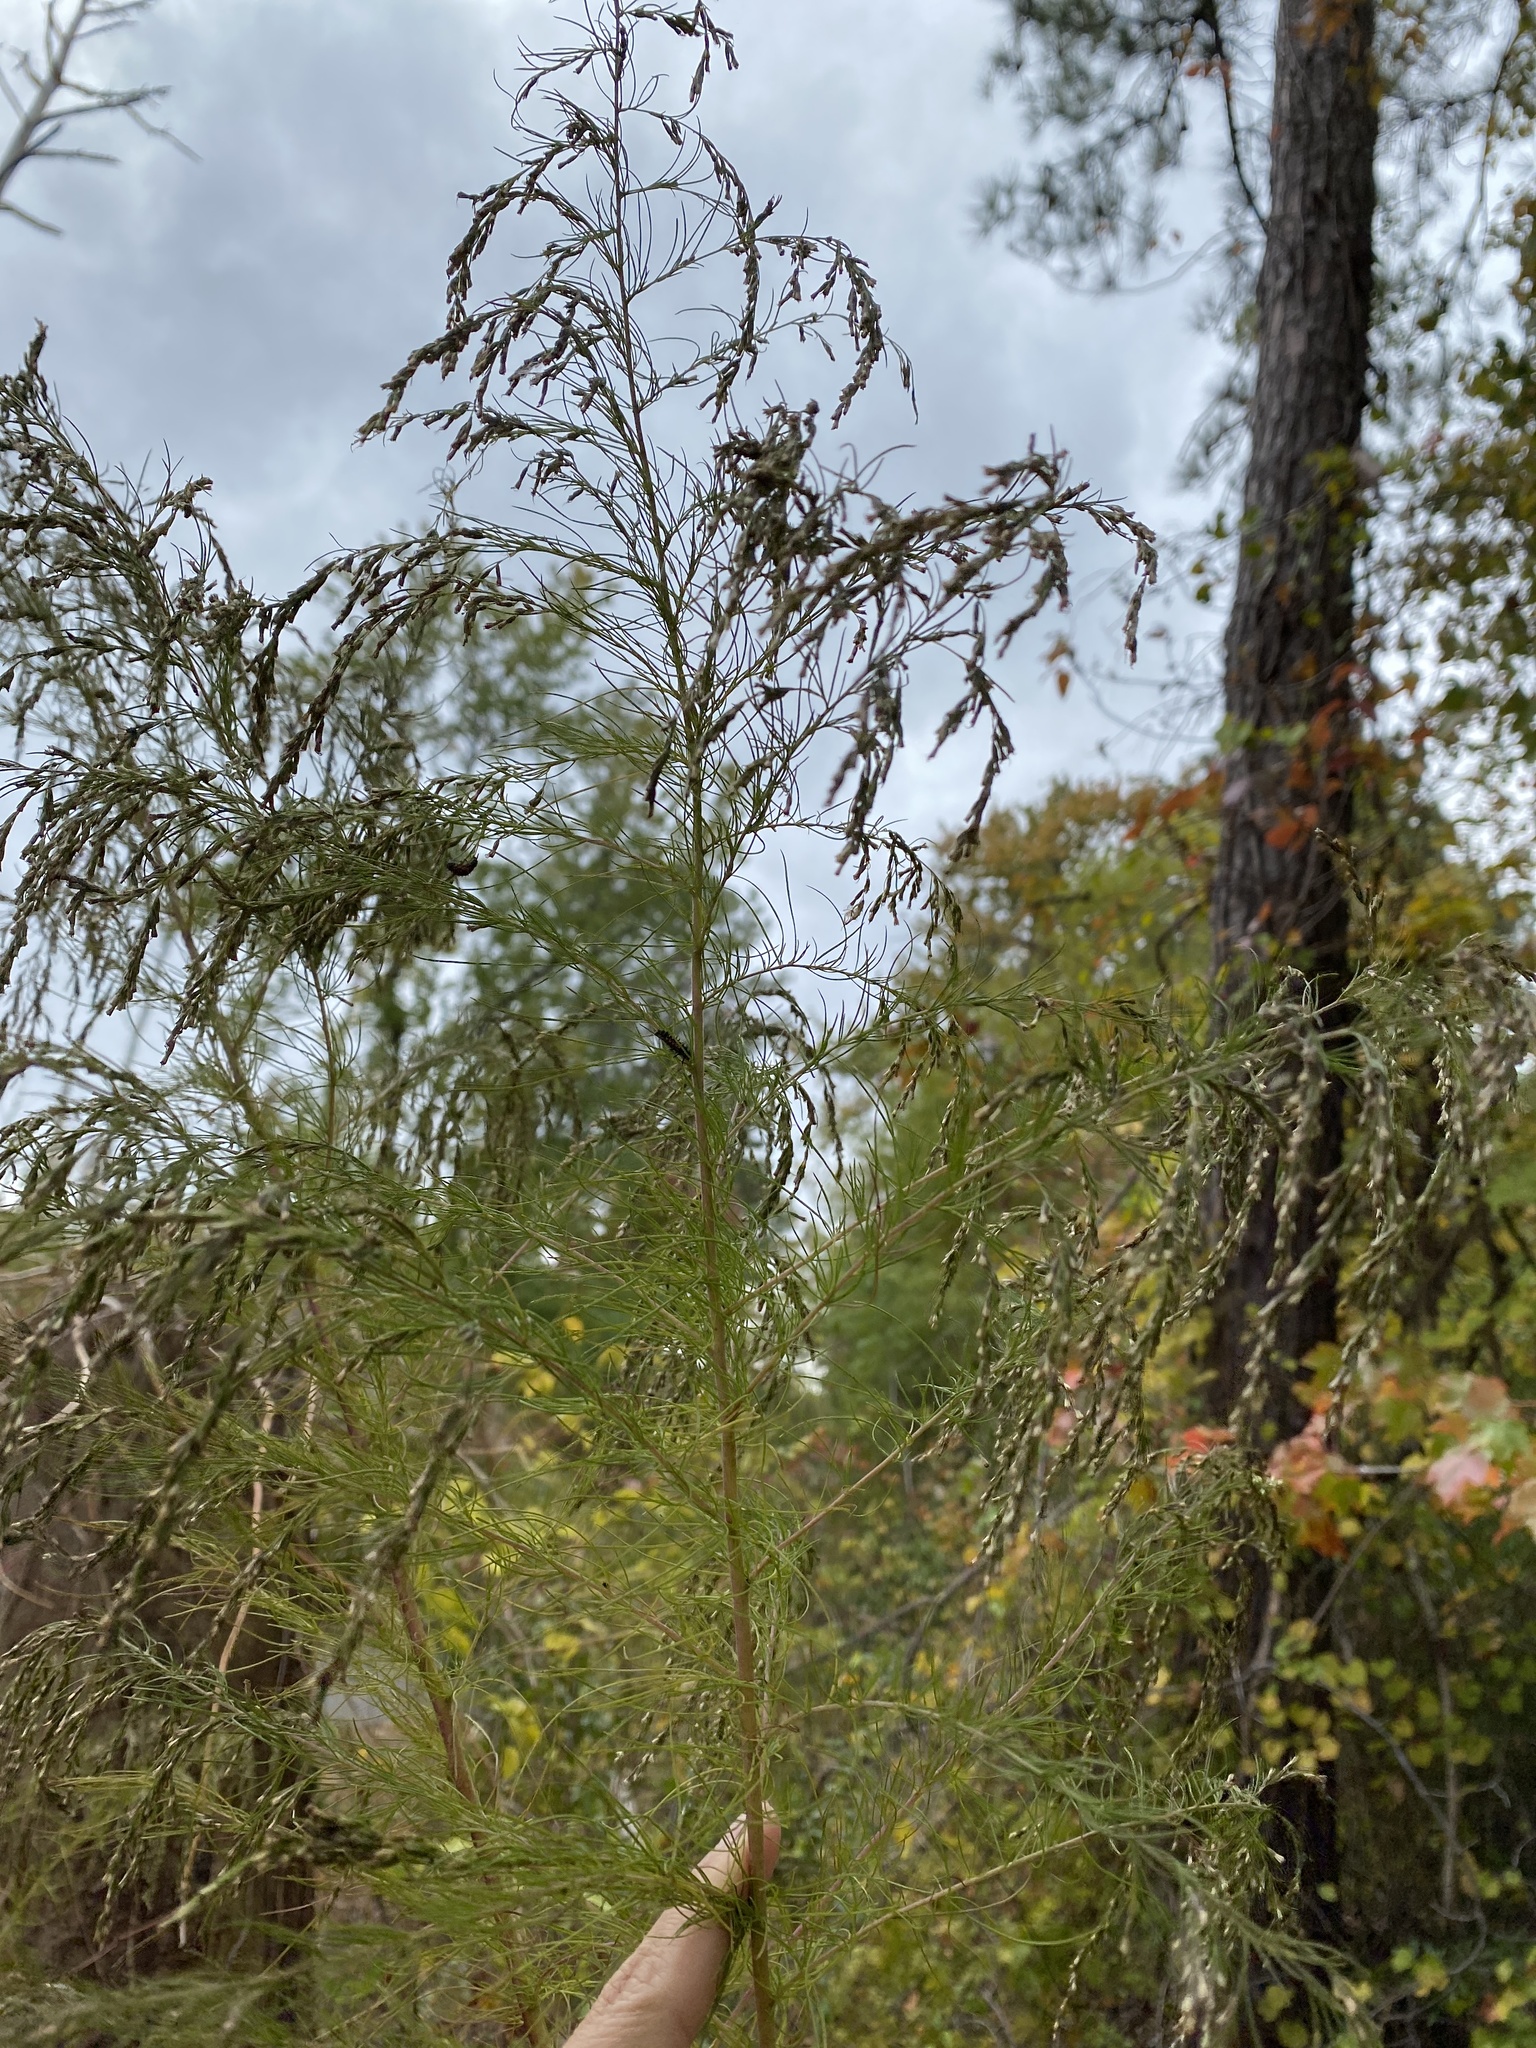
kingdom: Plantae
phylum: Tracheophyta
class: Magnoliopsida
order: Asterales
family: Asteraceae
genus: Eupatorium
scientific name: Eupatorium capillifolium
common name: Dog-fennel
